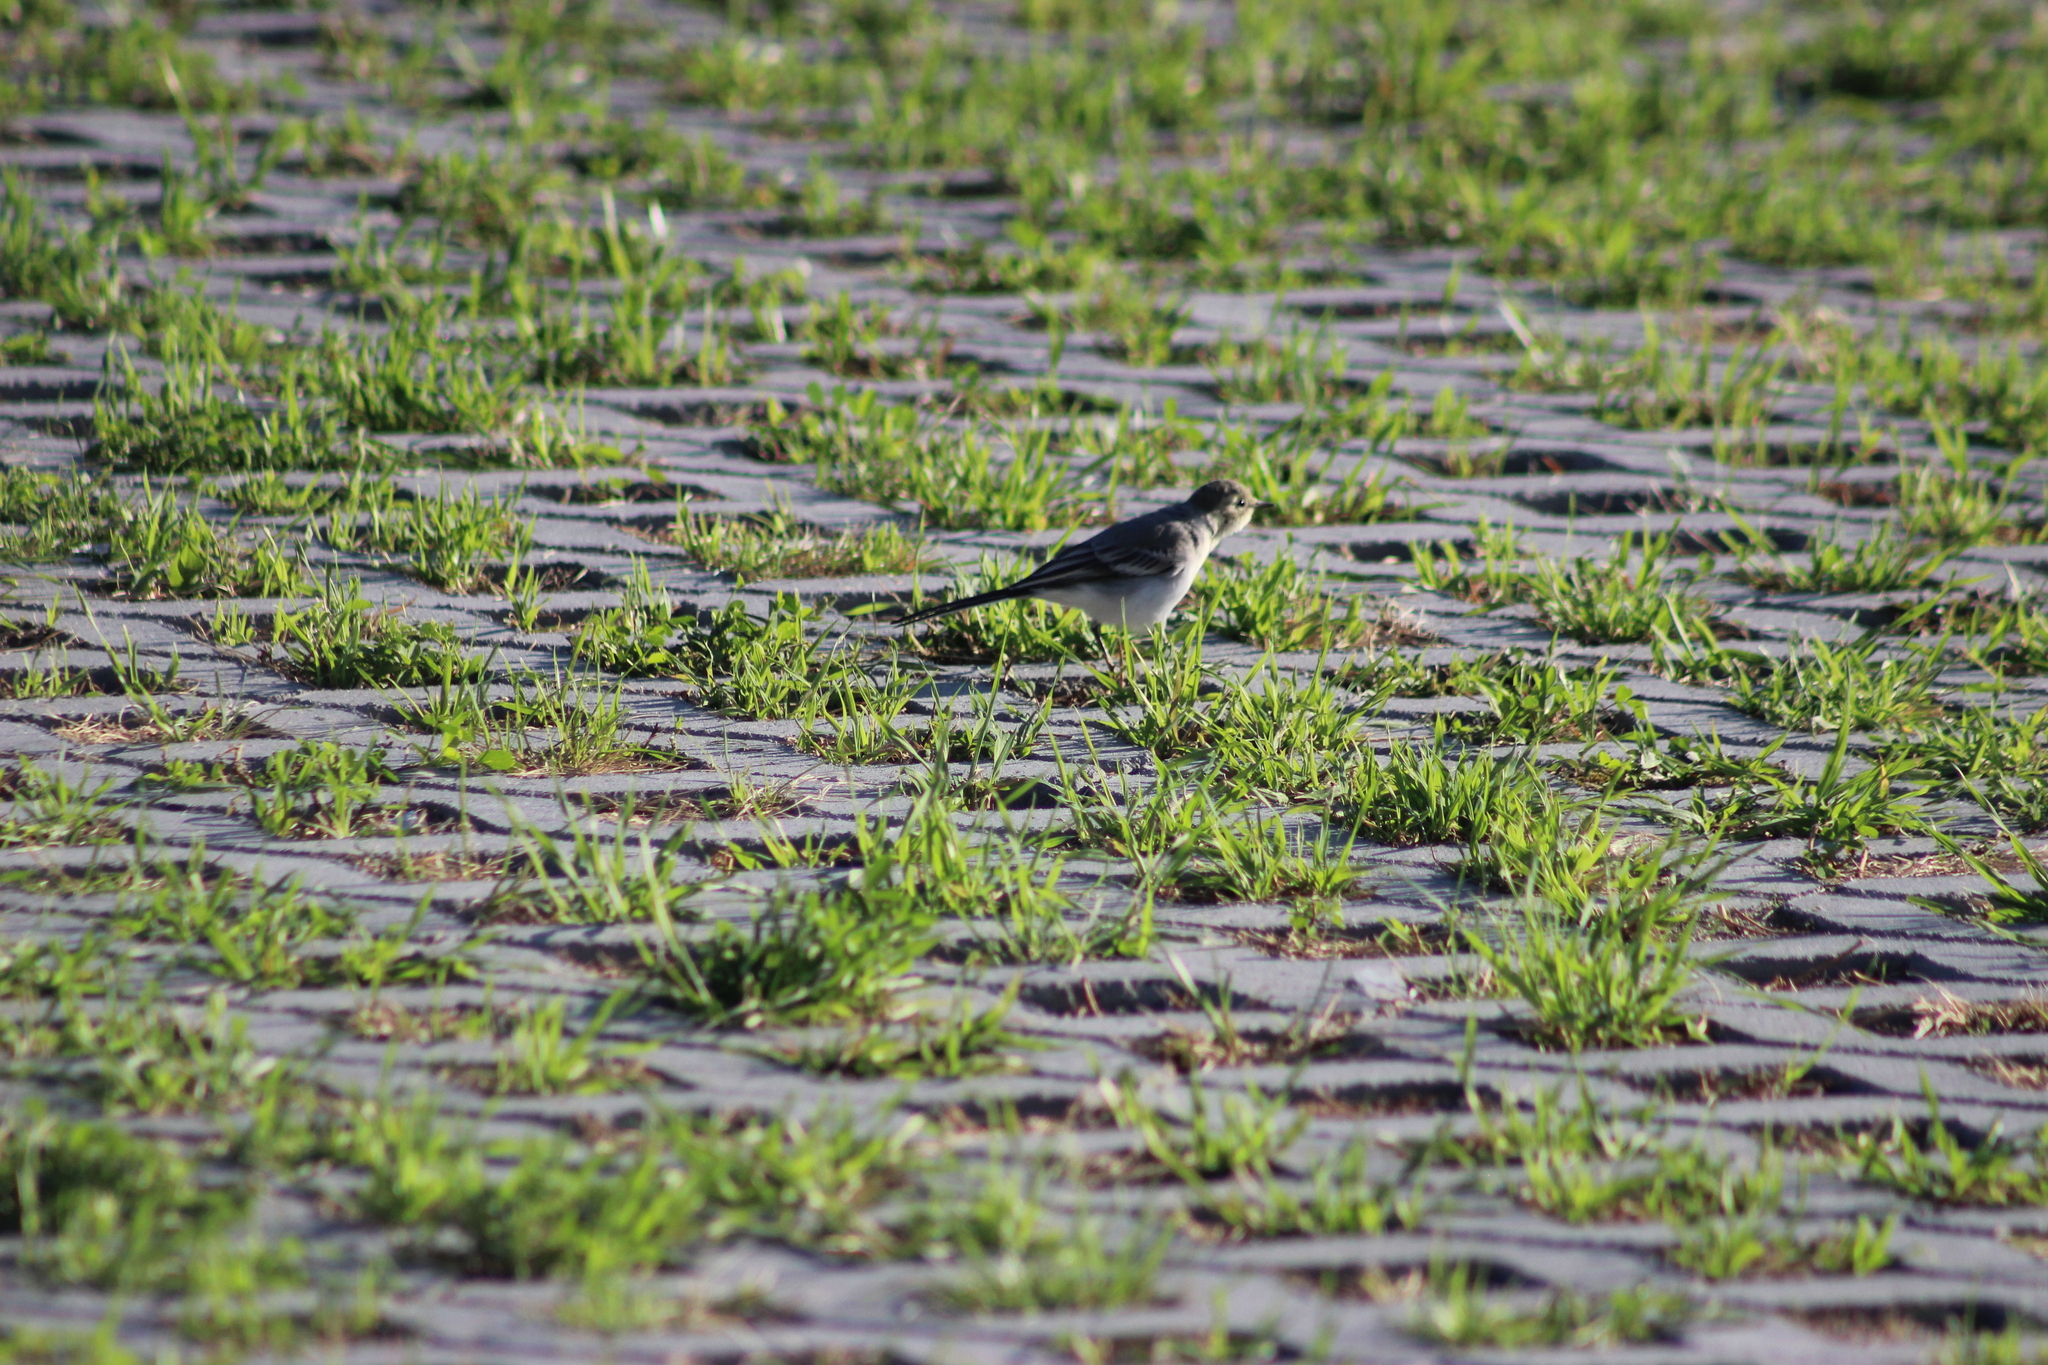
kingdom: Animalia
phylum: Chordata
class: Aves
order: Passeriformes
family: Motacillidae
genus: Motacilla
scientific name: Motacilla alba
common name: White wagtail
